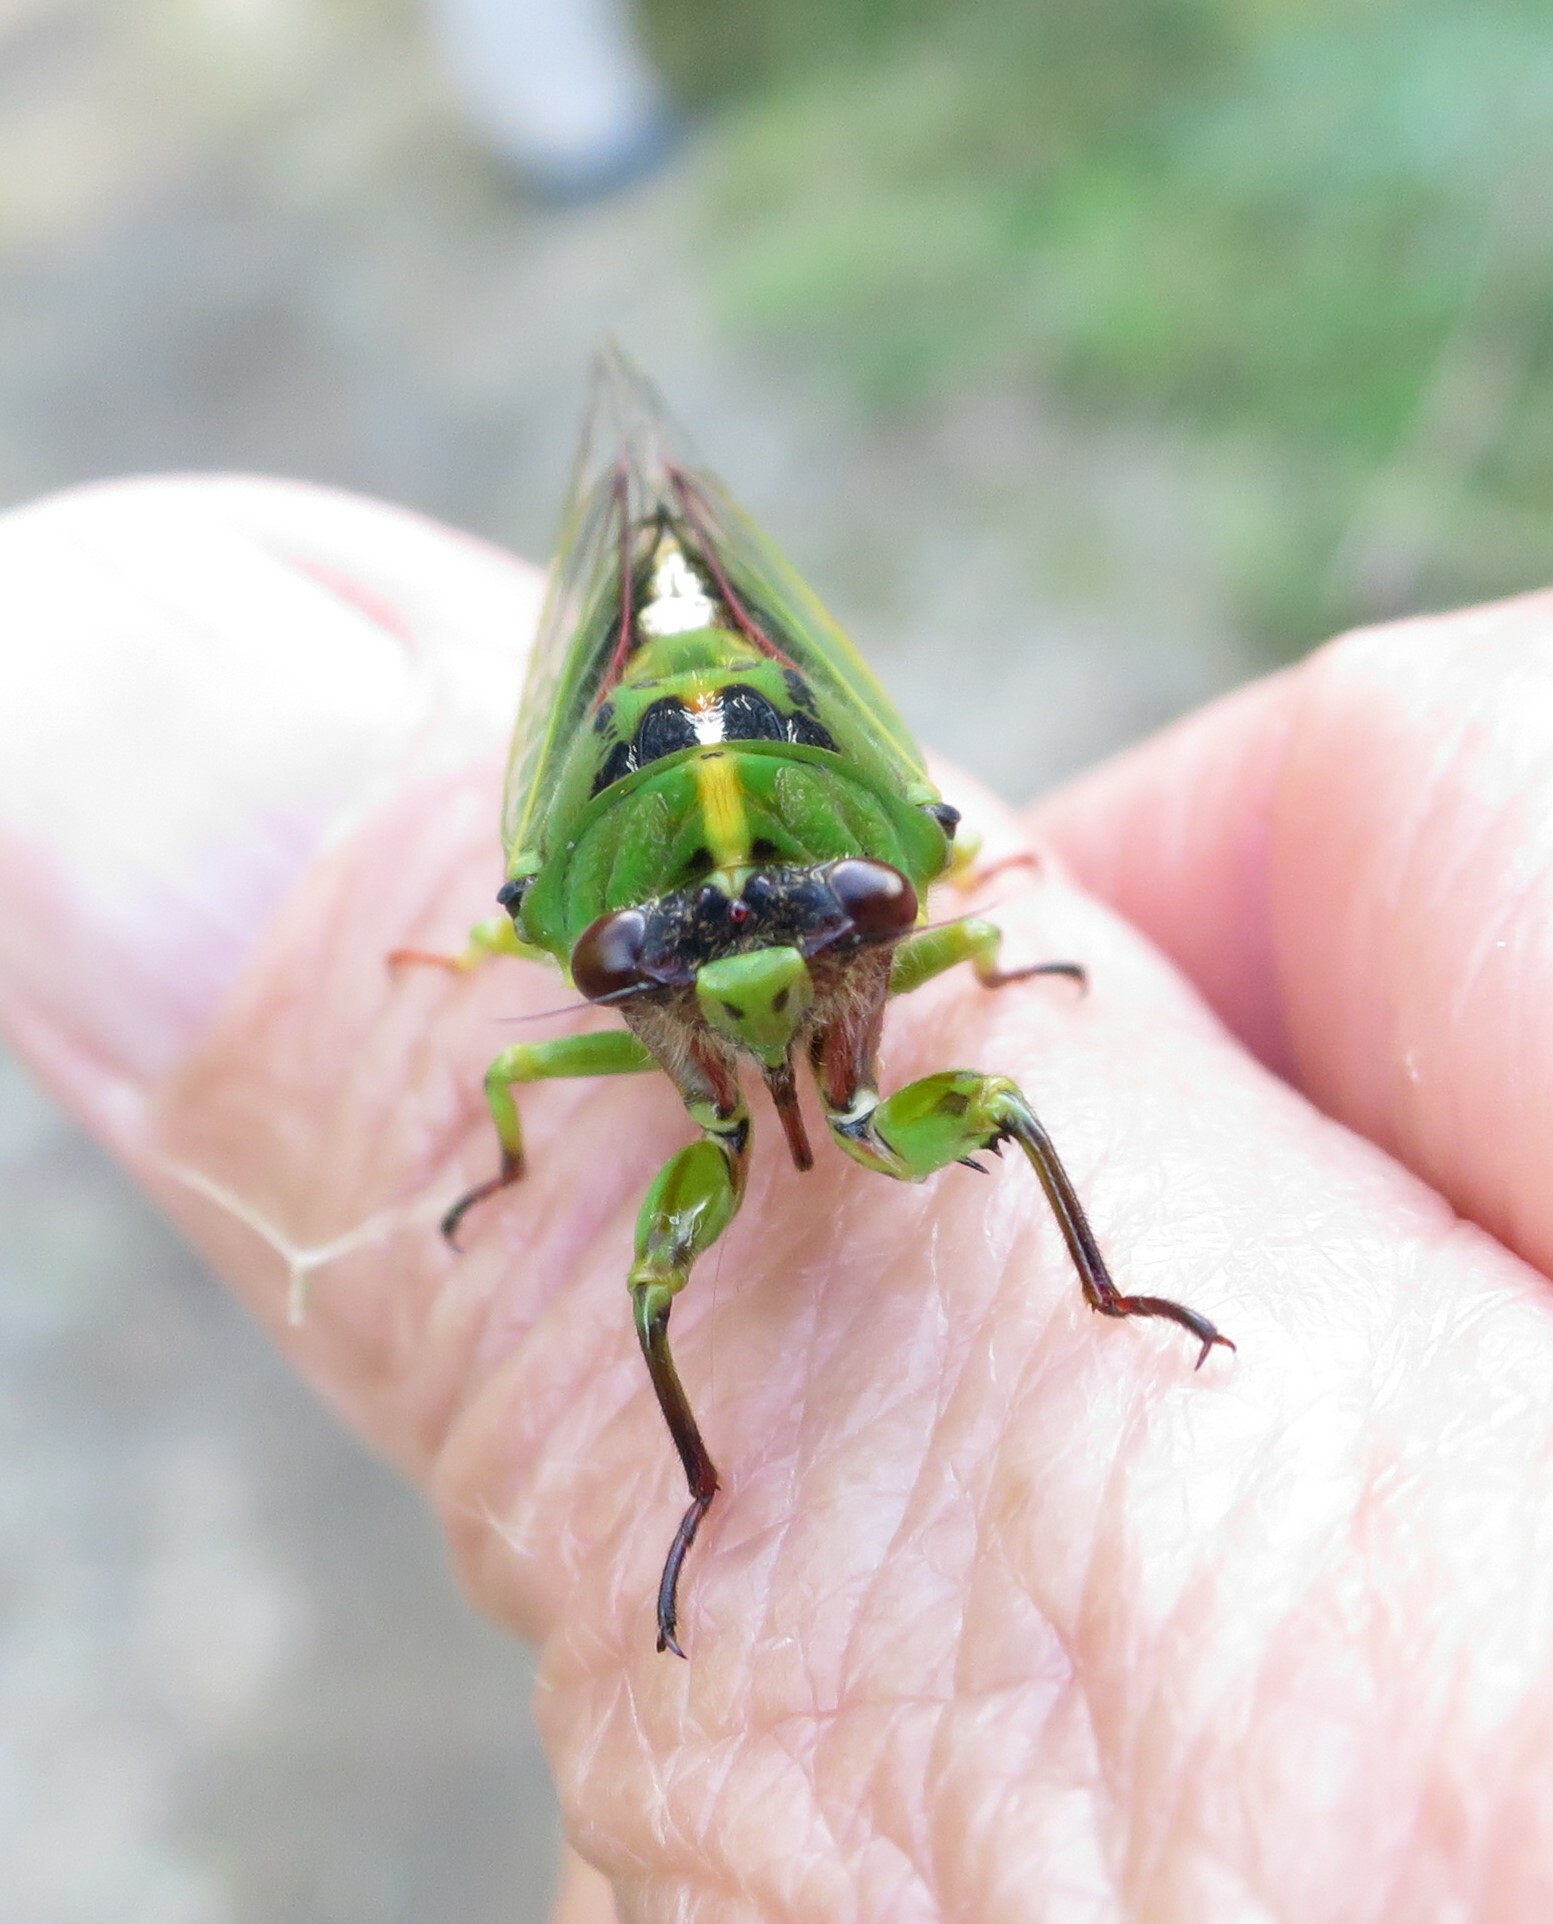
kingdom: Animalia
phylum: Arthropoda
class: Insecta
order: Hemiptera
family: Cicadidae
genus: Kikihia
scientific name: Kikihia cutora
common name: Northern snoring cicada
